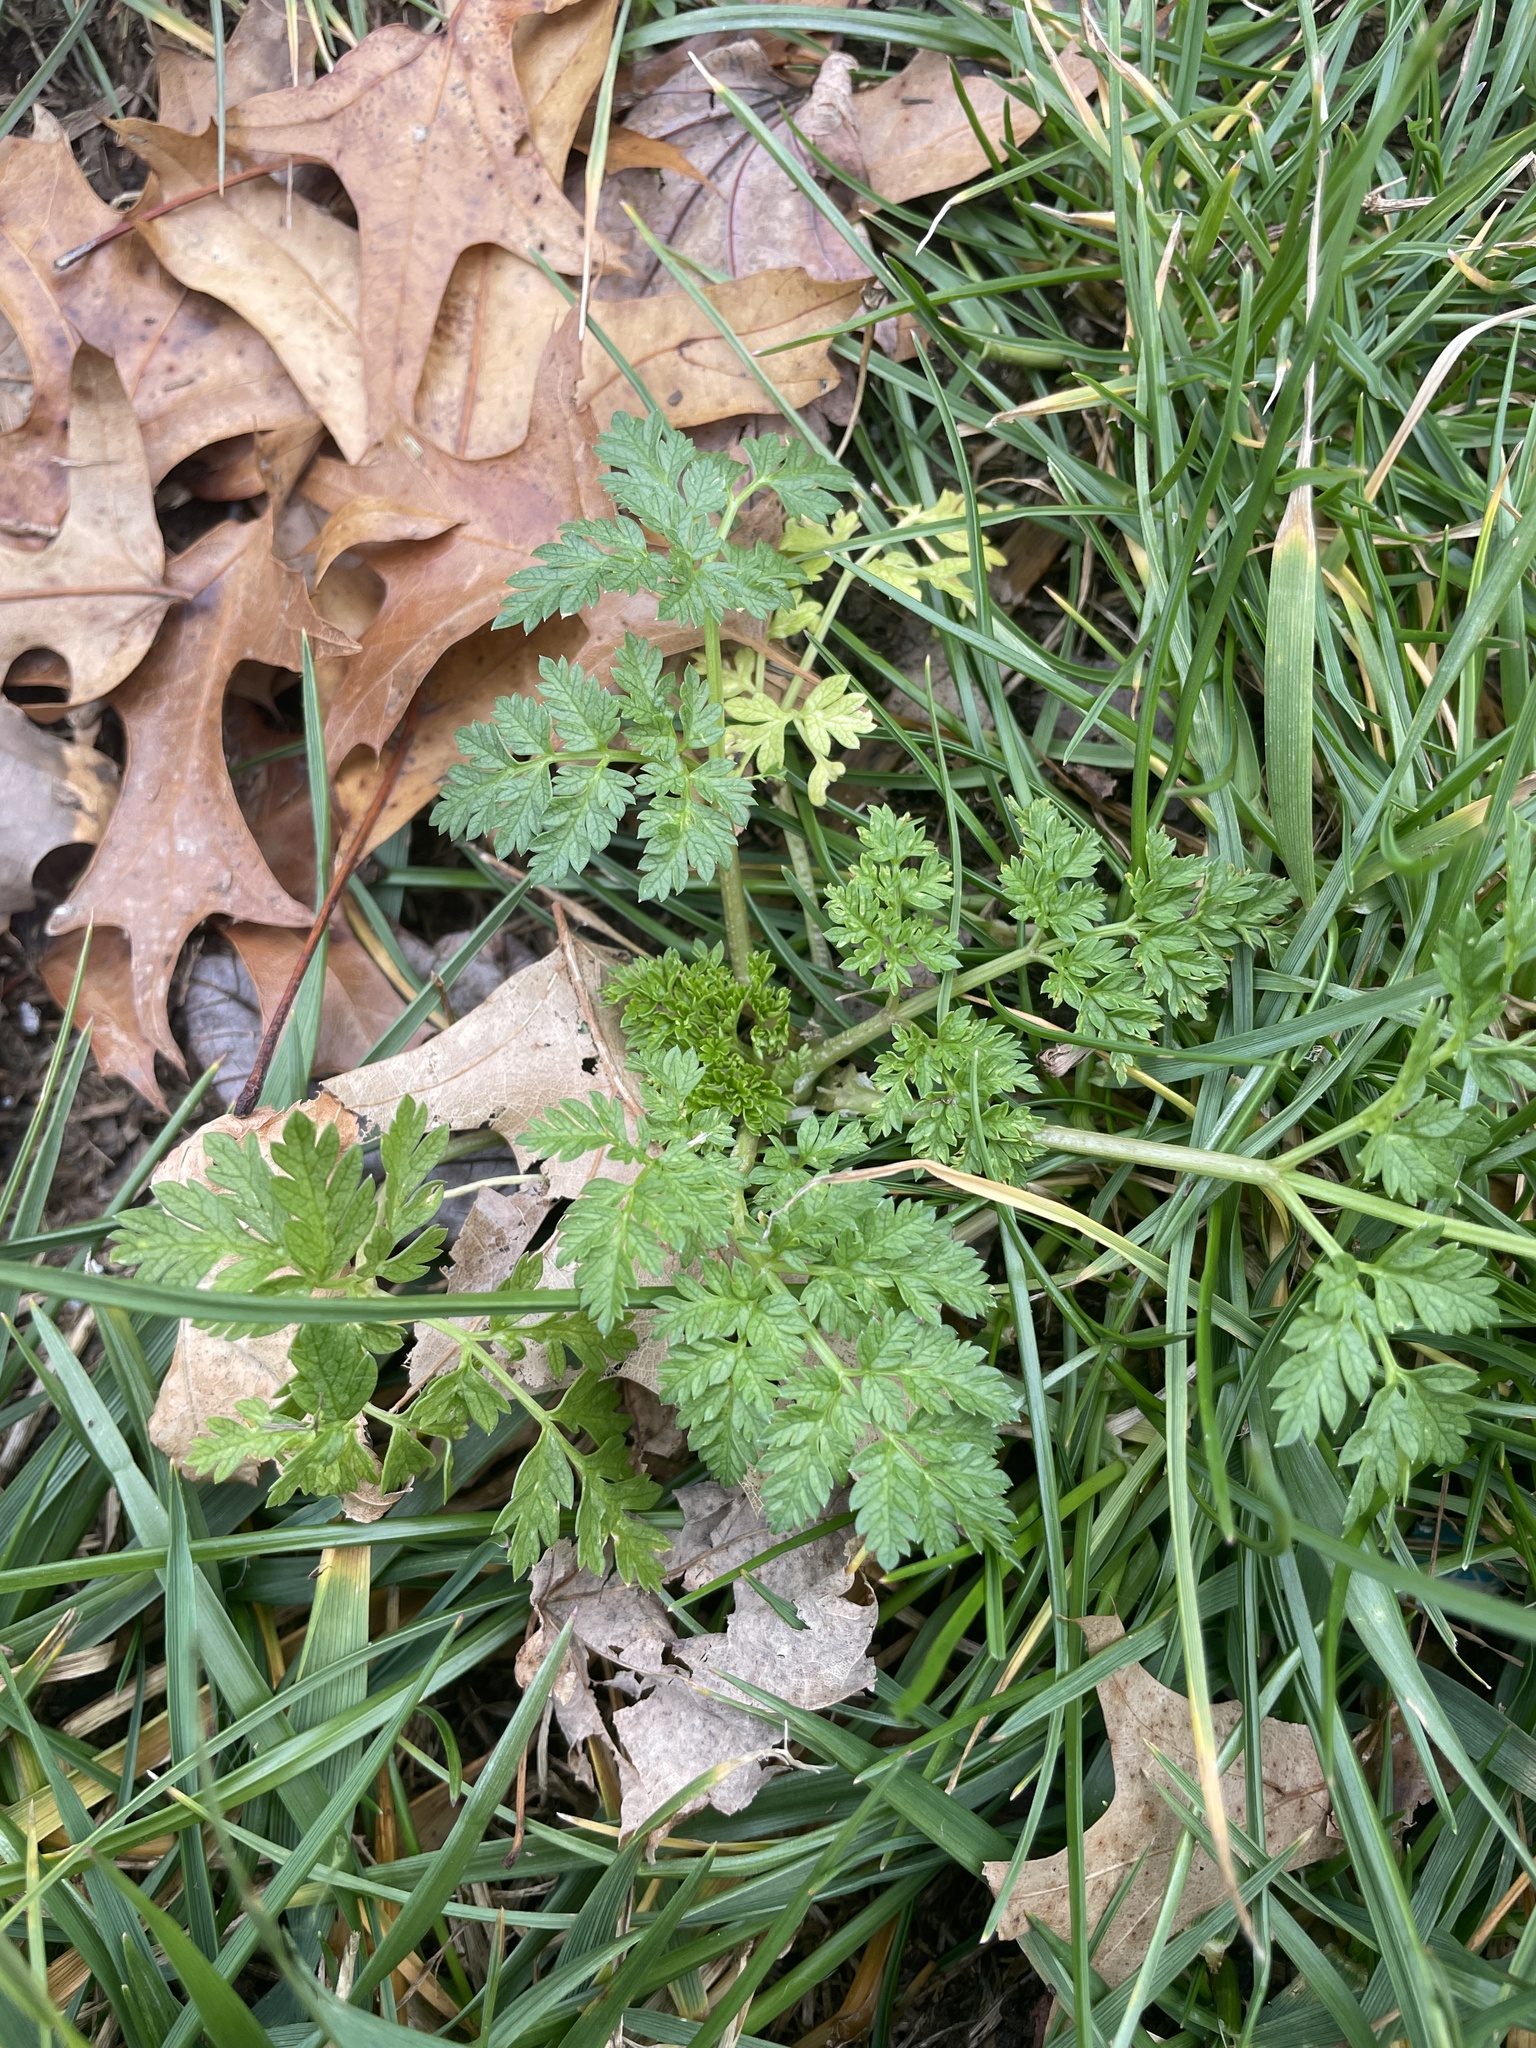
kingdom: Plantae
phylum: Tracheophyta
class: Magnoliopsida
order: Apiales
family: Apiaceae
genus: Conium
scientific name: Conium maculatum
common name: Hemlock
